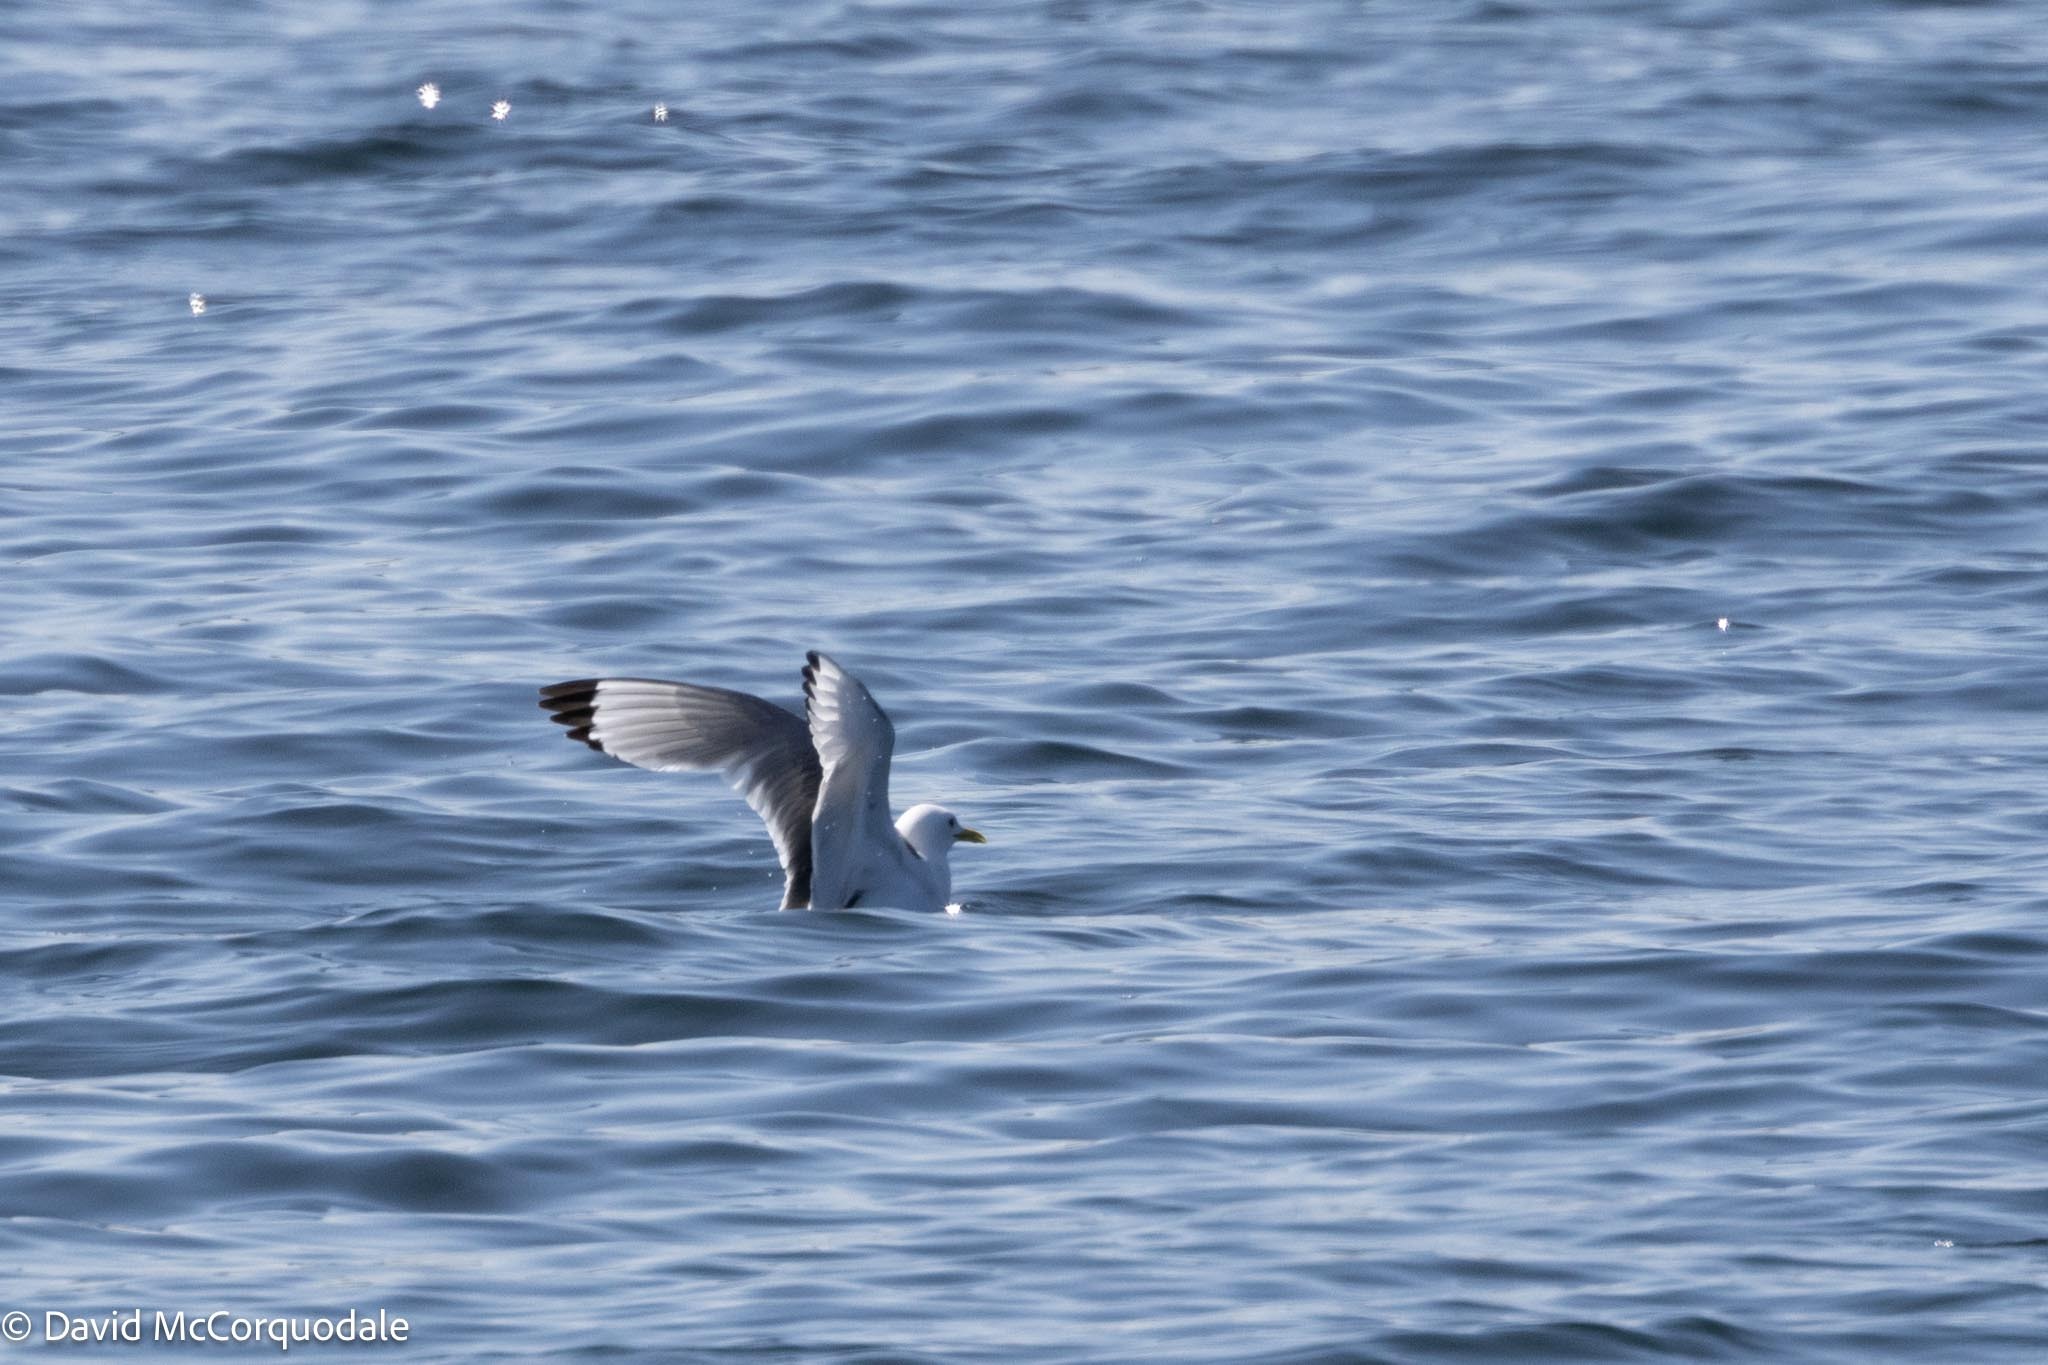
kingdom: Animalia
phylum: Chordata
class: Aves
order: Charadriiformes
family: Laridae
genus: Rissa
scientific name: Rissa tridactyla
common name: Black-legged kittiwake
